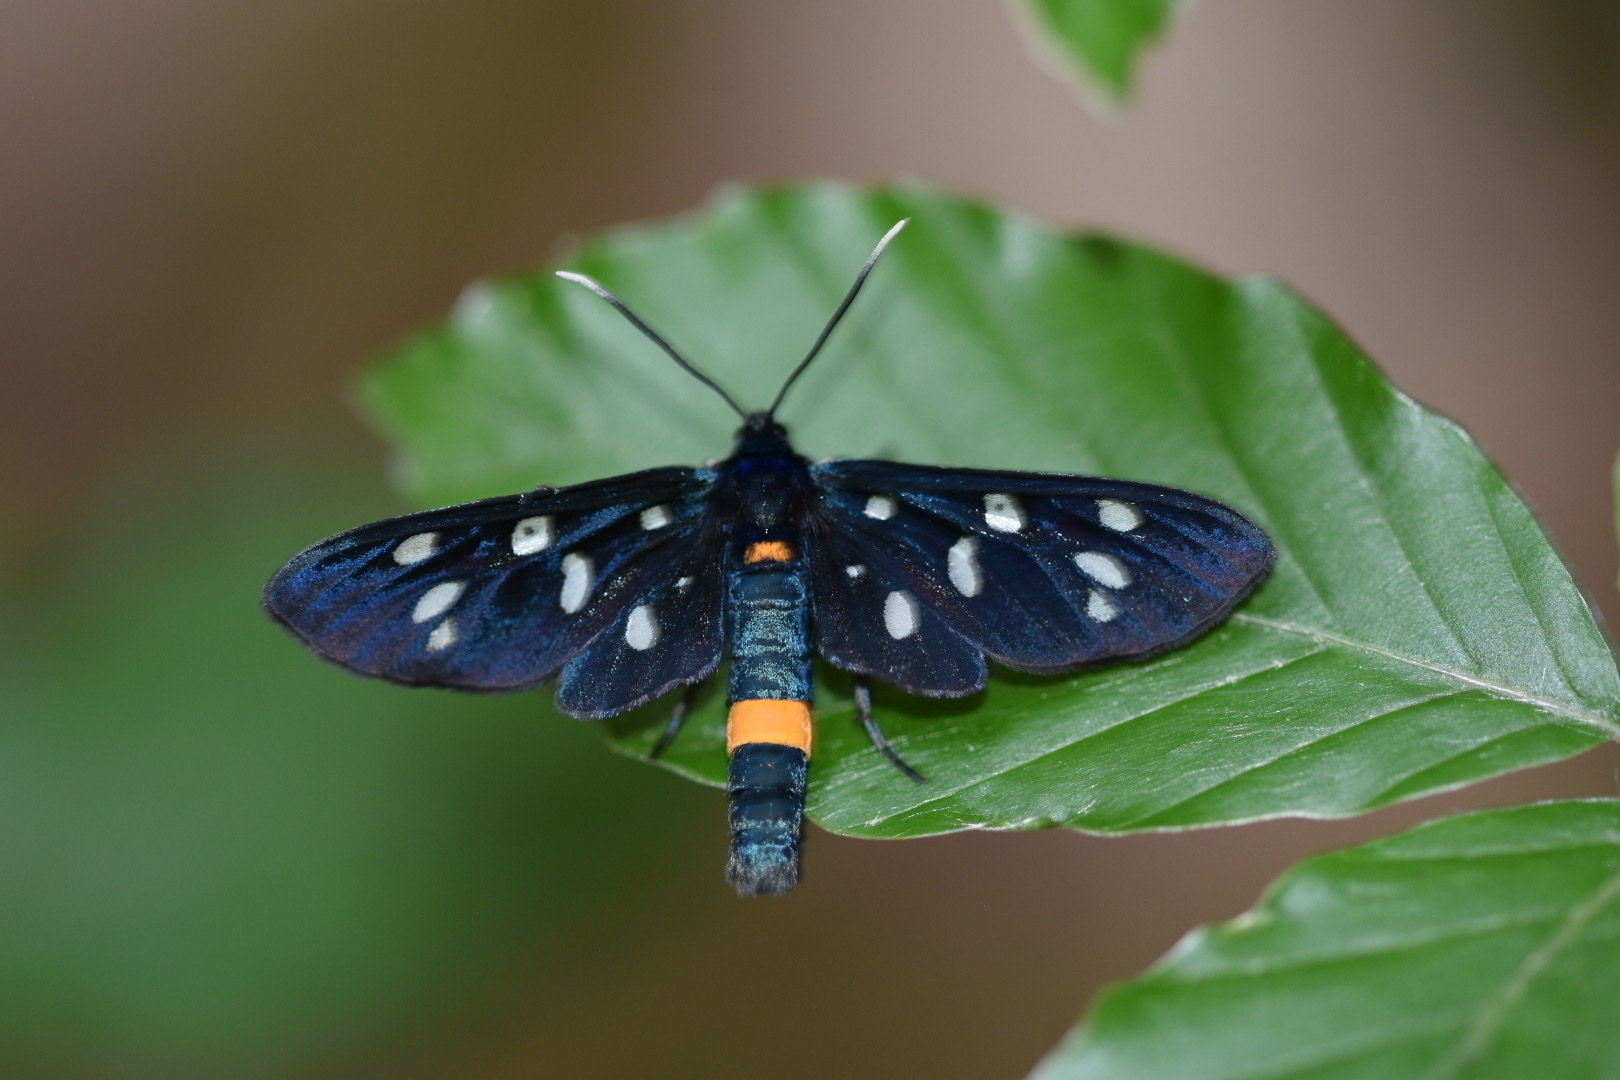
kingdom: Animalia
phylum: Arthropoda
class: Insecta
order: Lepidoptera
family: Erebidae
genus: Amata
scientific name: Amata phegea
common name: Nine-spotted
